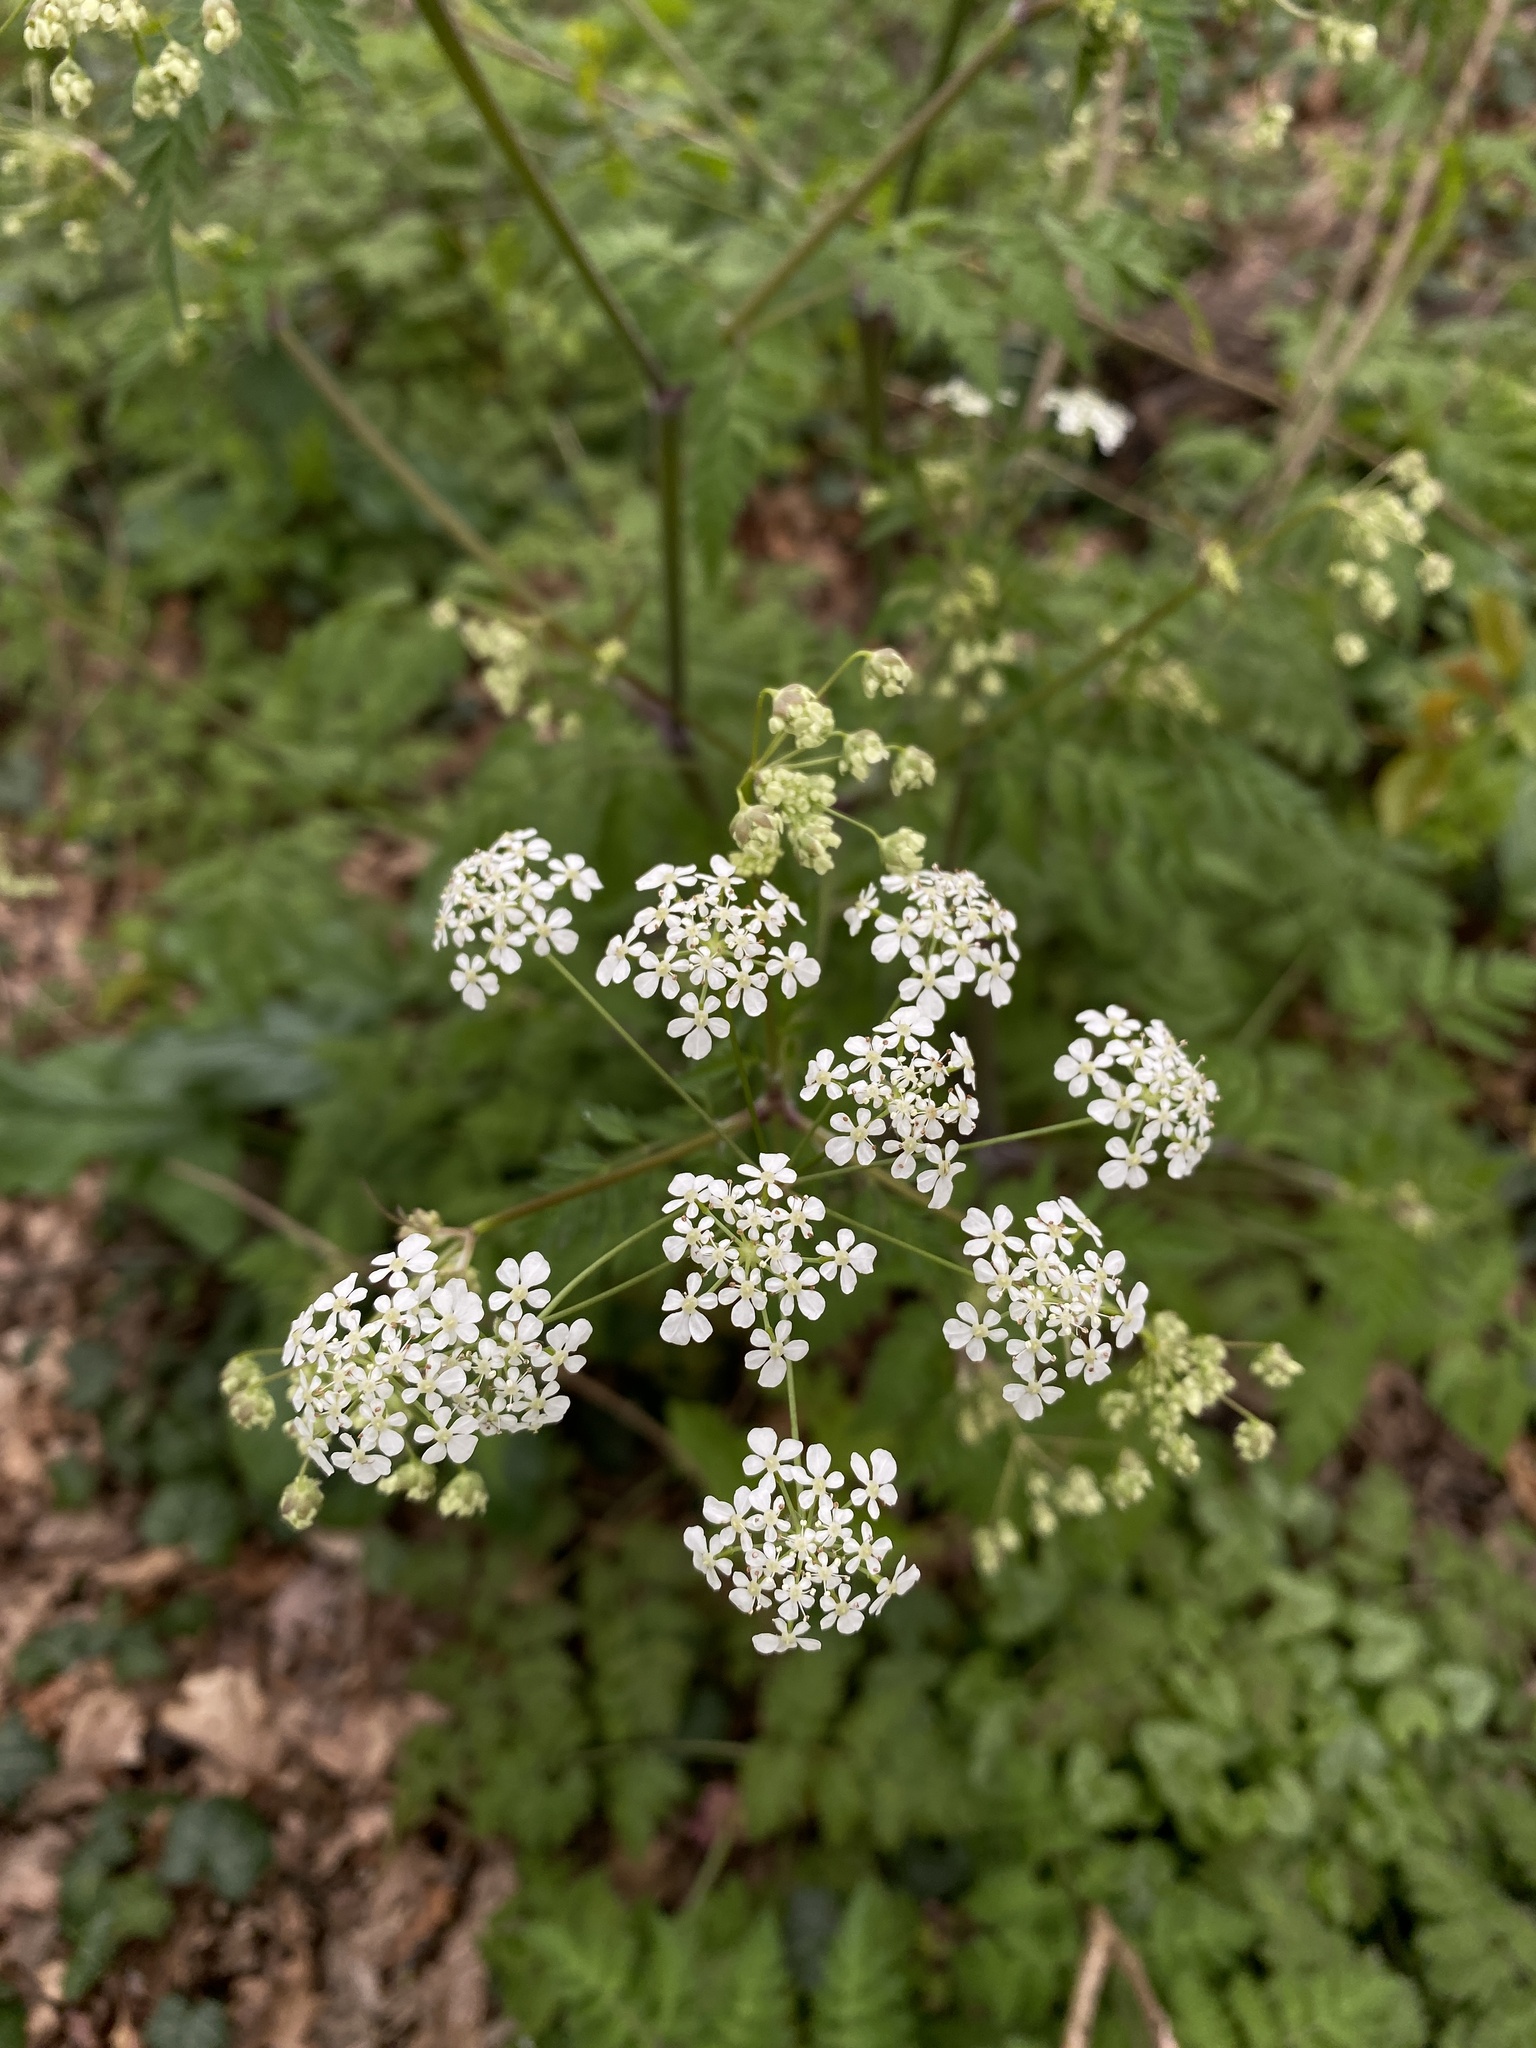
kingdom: Plantae
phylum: Tracheophyta
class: Magnoliopsida
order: Apiales
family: Apiaceae
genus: Anthriscus
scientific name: Anthriscus sylvestris
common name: Cow parsley
